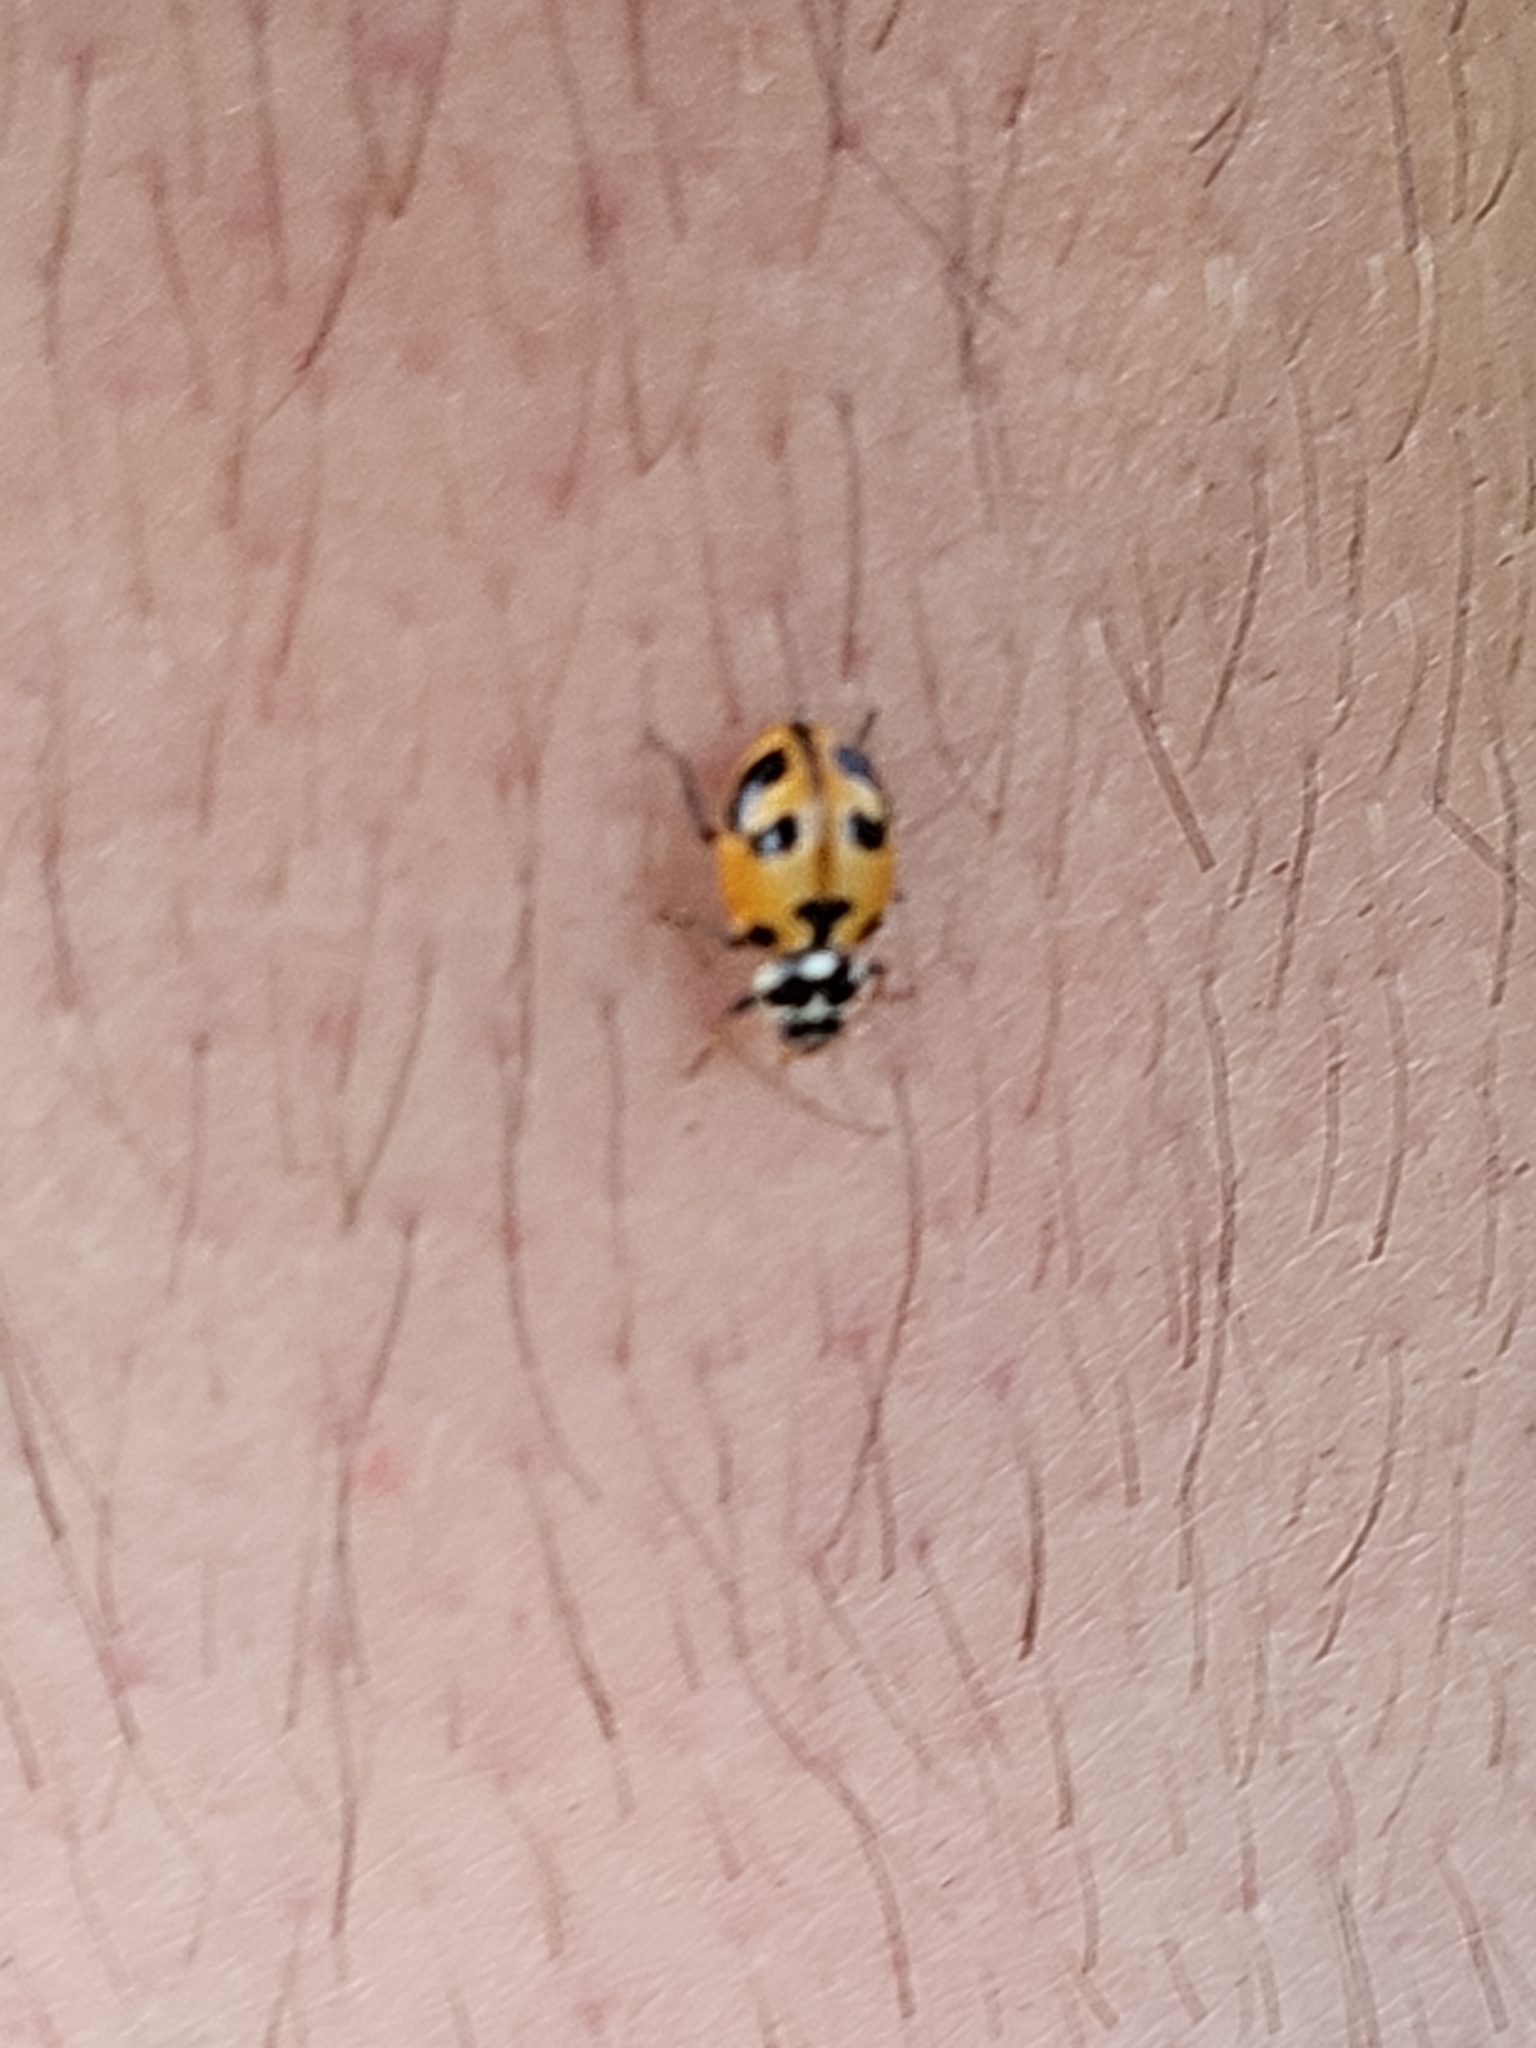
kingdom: Animalia
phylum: Arthropoda
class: Insecta
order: Coleoptera
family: Coccinellidae
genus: Hippodamia
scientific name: Hippodamia parenthesis
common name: Parenthesis lady beetle
